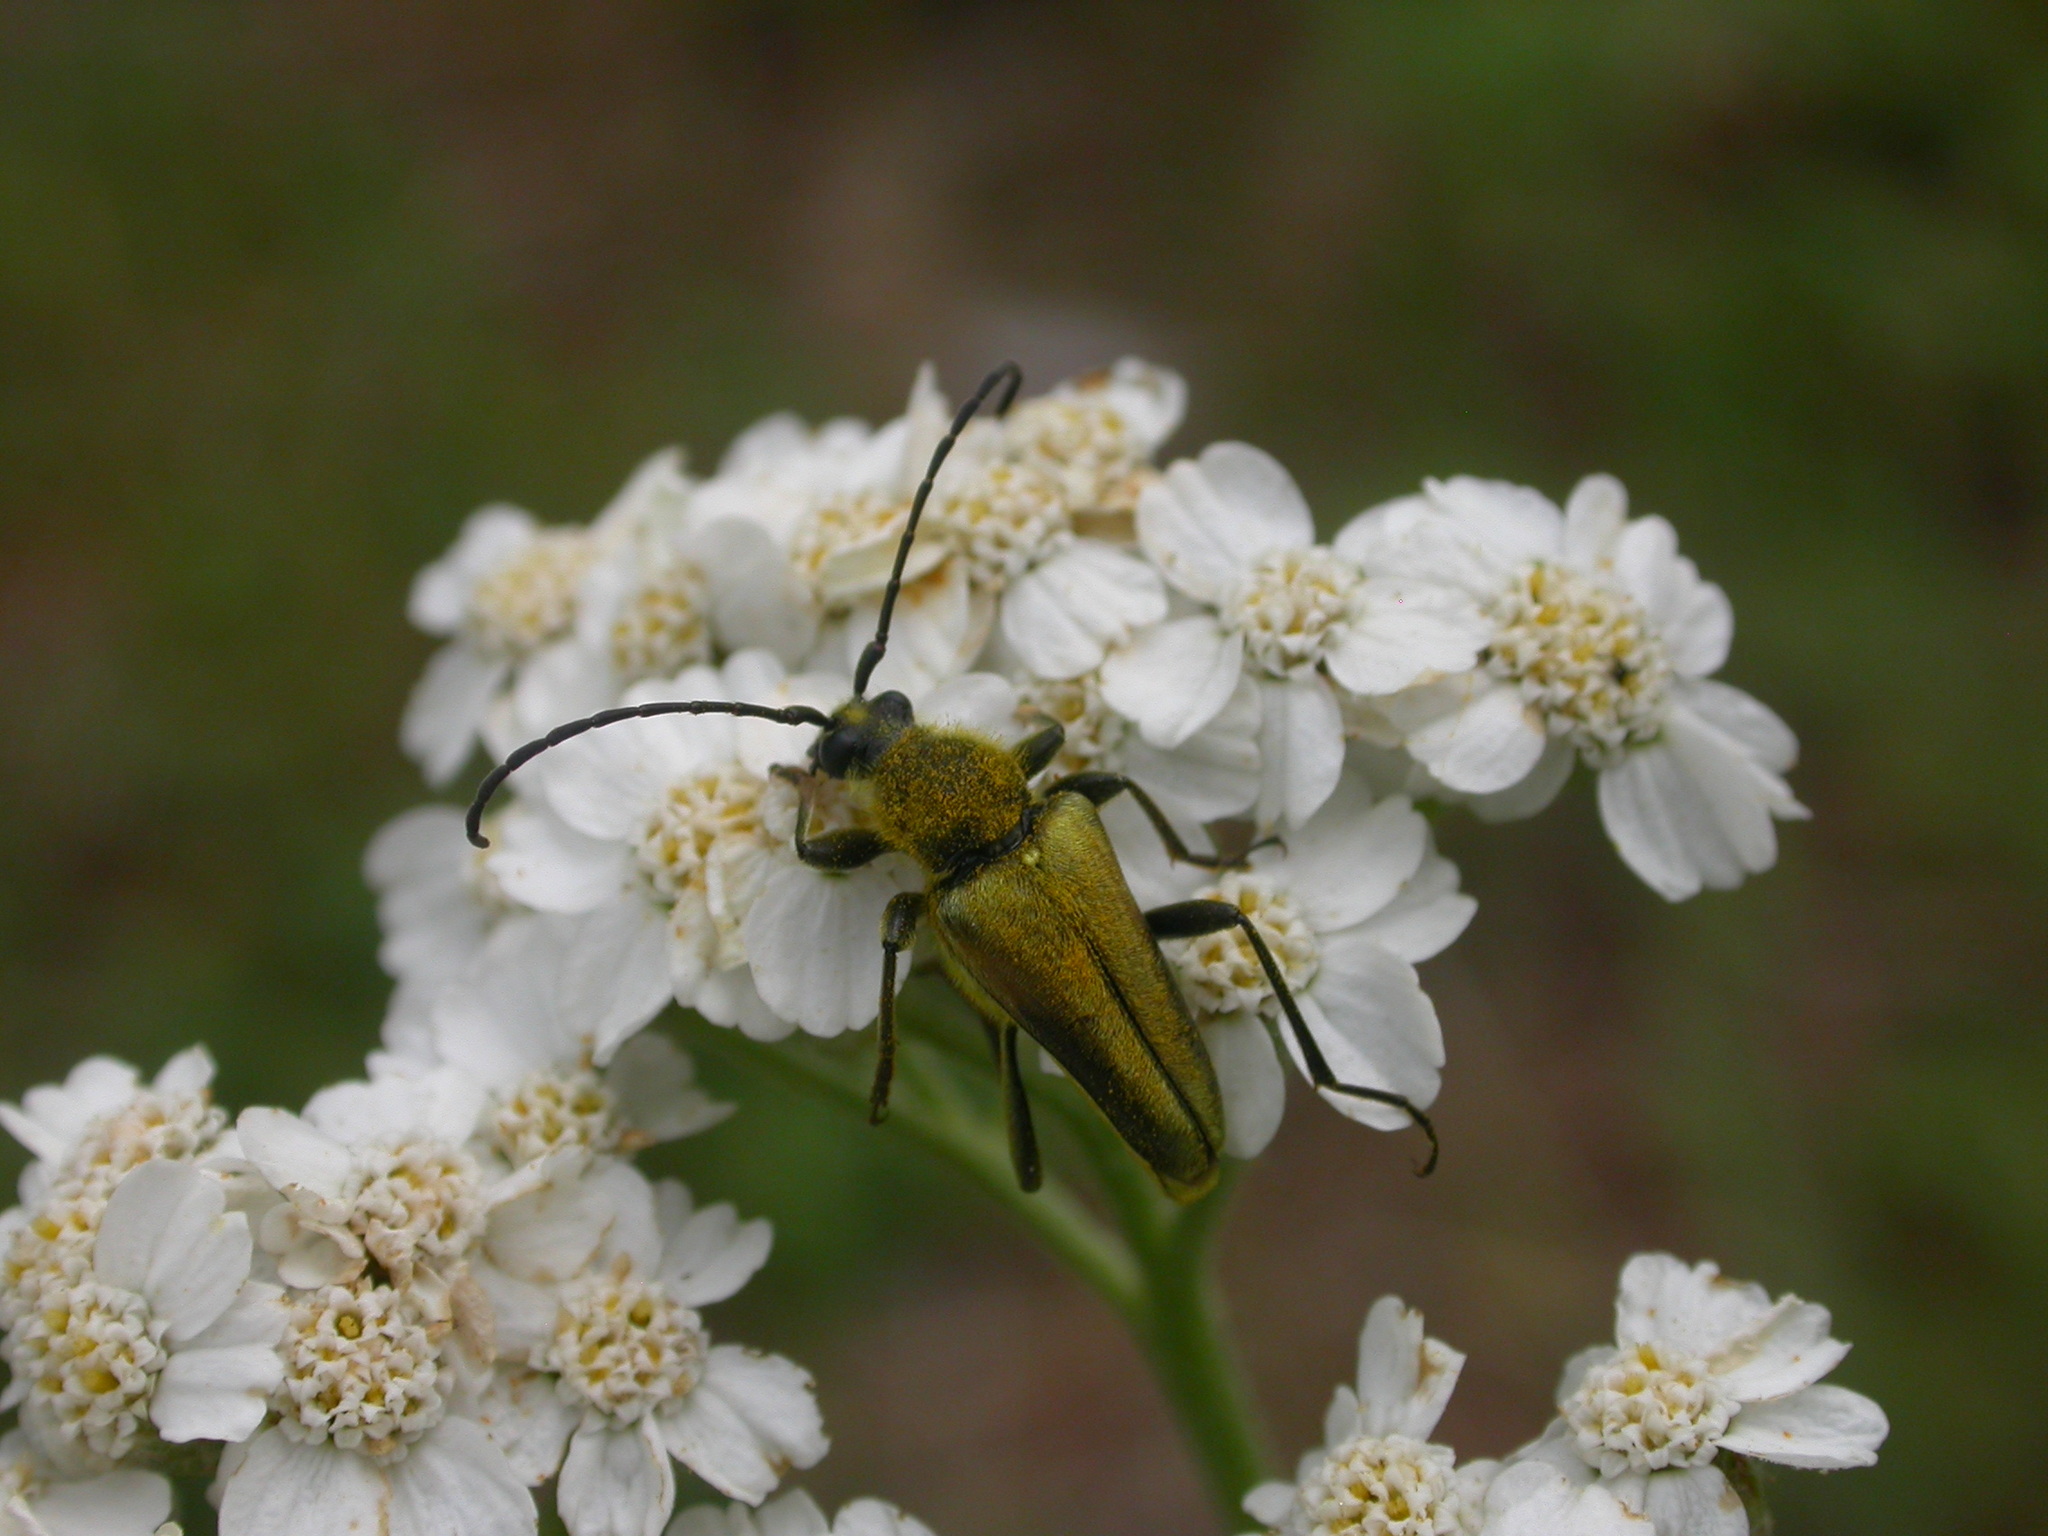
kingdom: Animalia
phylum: Arthropoda
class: Insecta
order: Coleoptera
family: Cerambycidae
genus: Cosmosalia
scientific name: Cosmosalia chrysocoma
